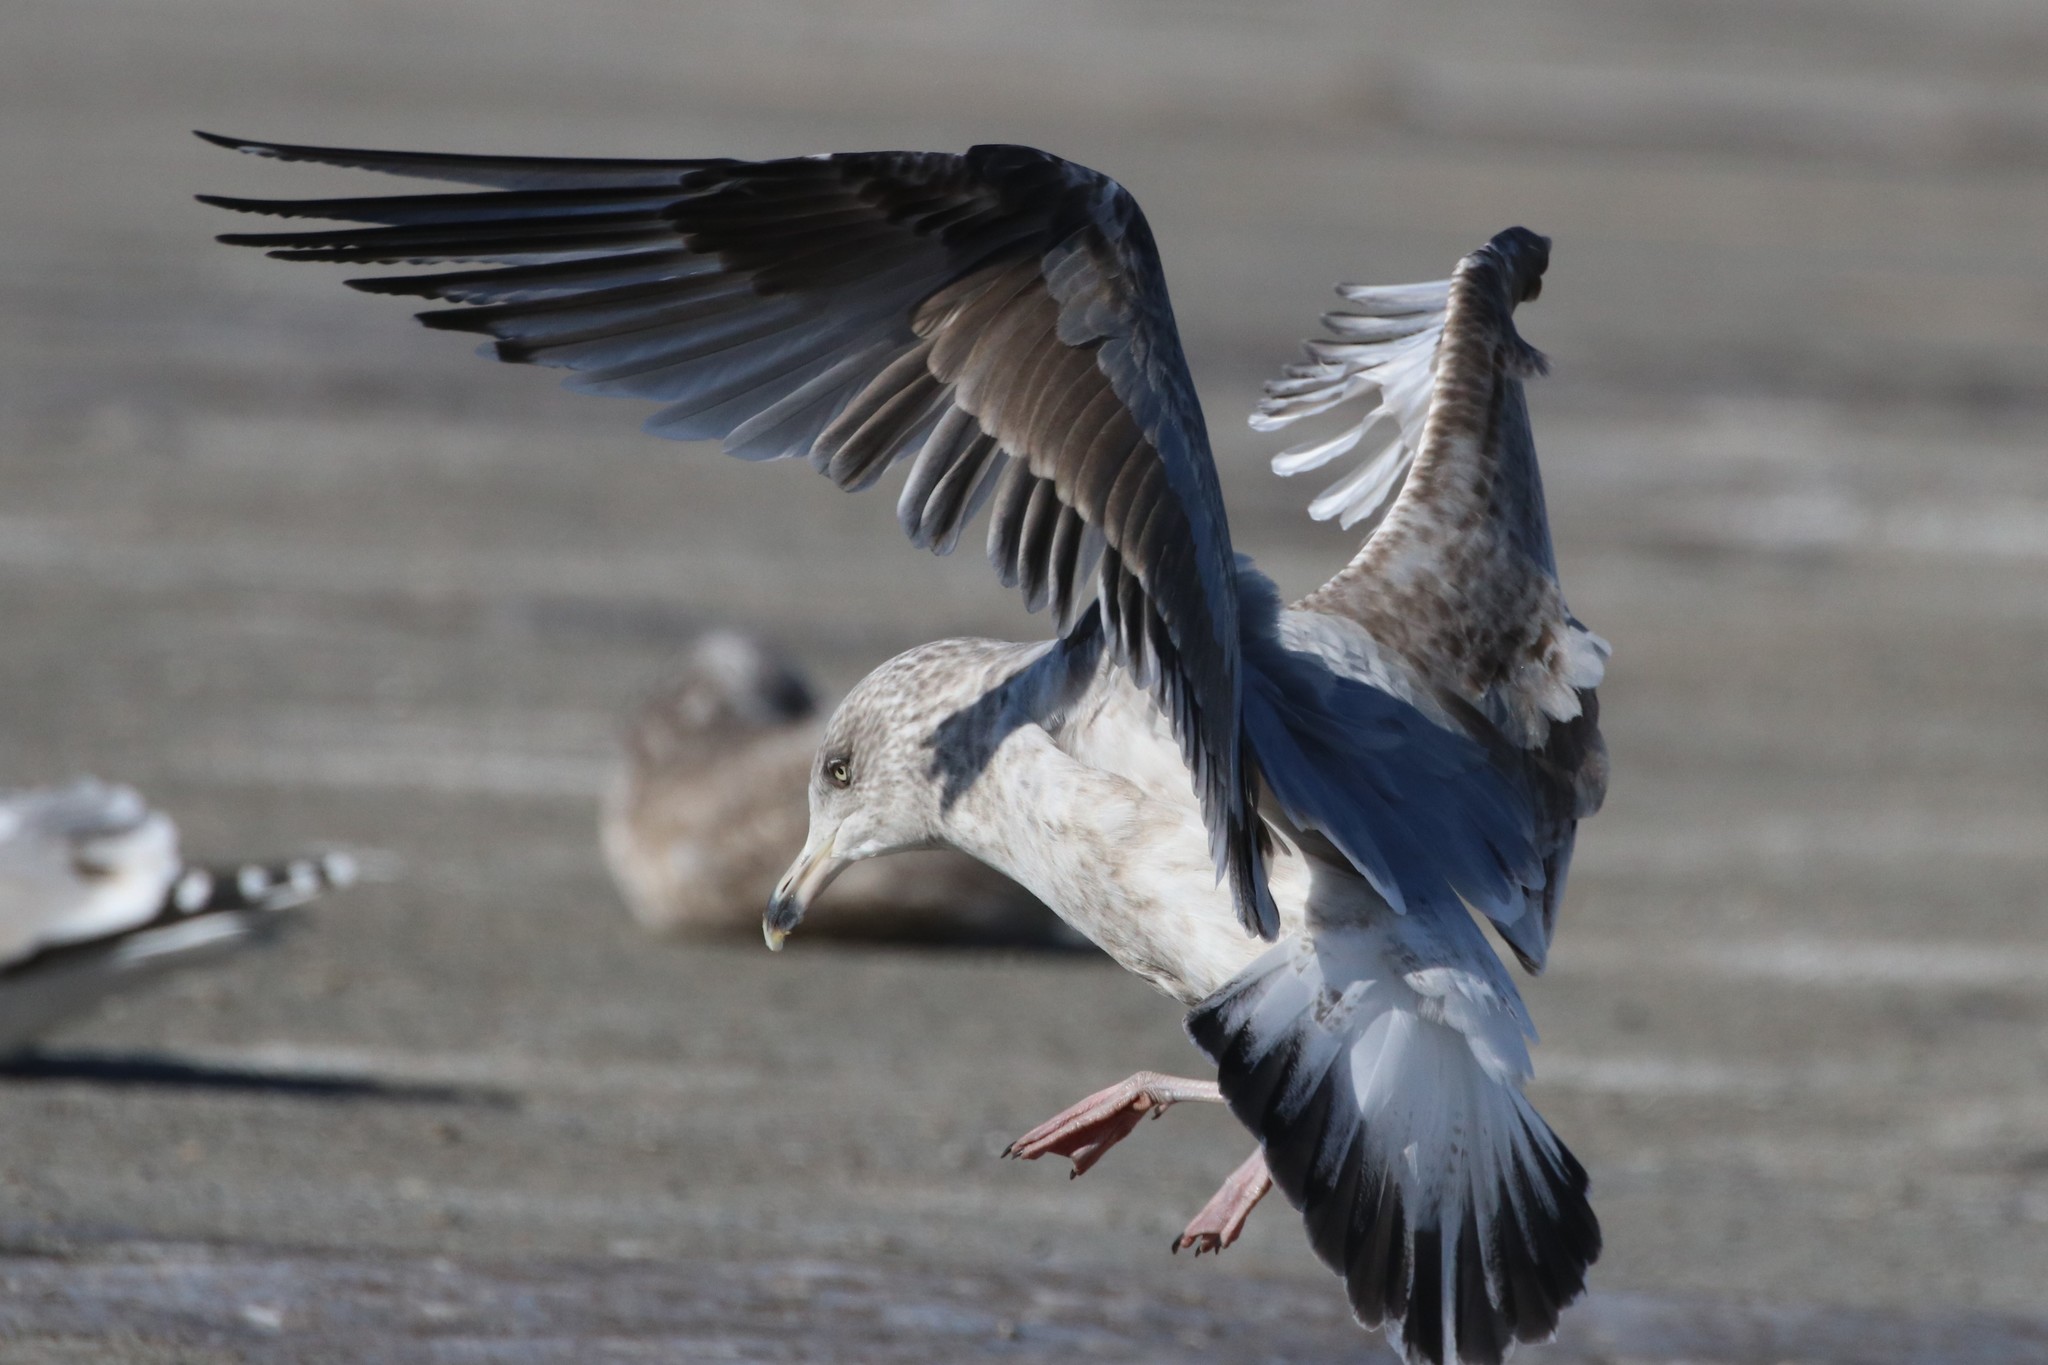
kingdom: Animalia
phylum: Chordata
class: Aves
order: Charadriiformes
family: Laridae
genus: Larus
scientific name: Larus argentatus
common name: Herring gull
